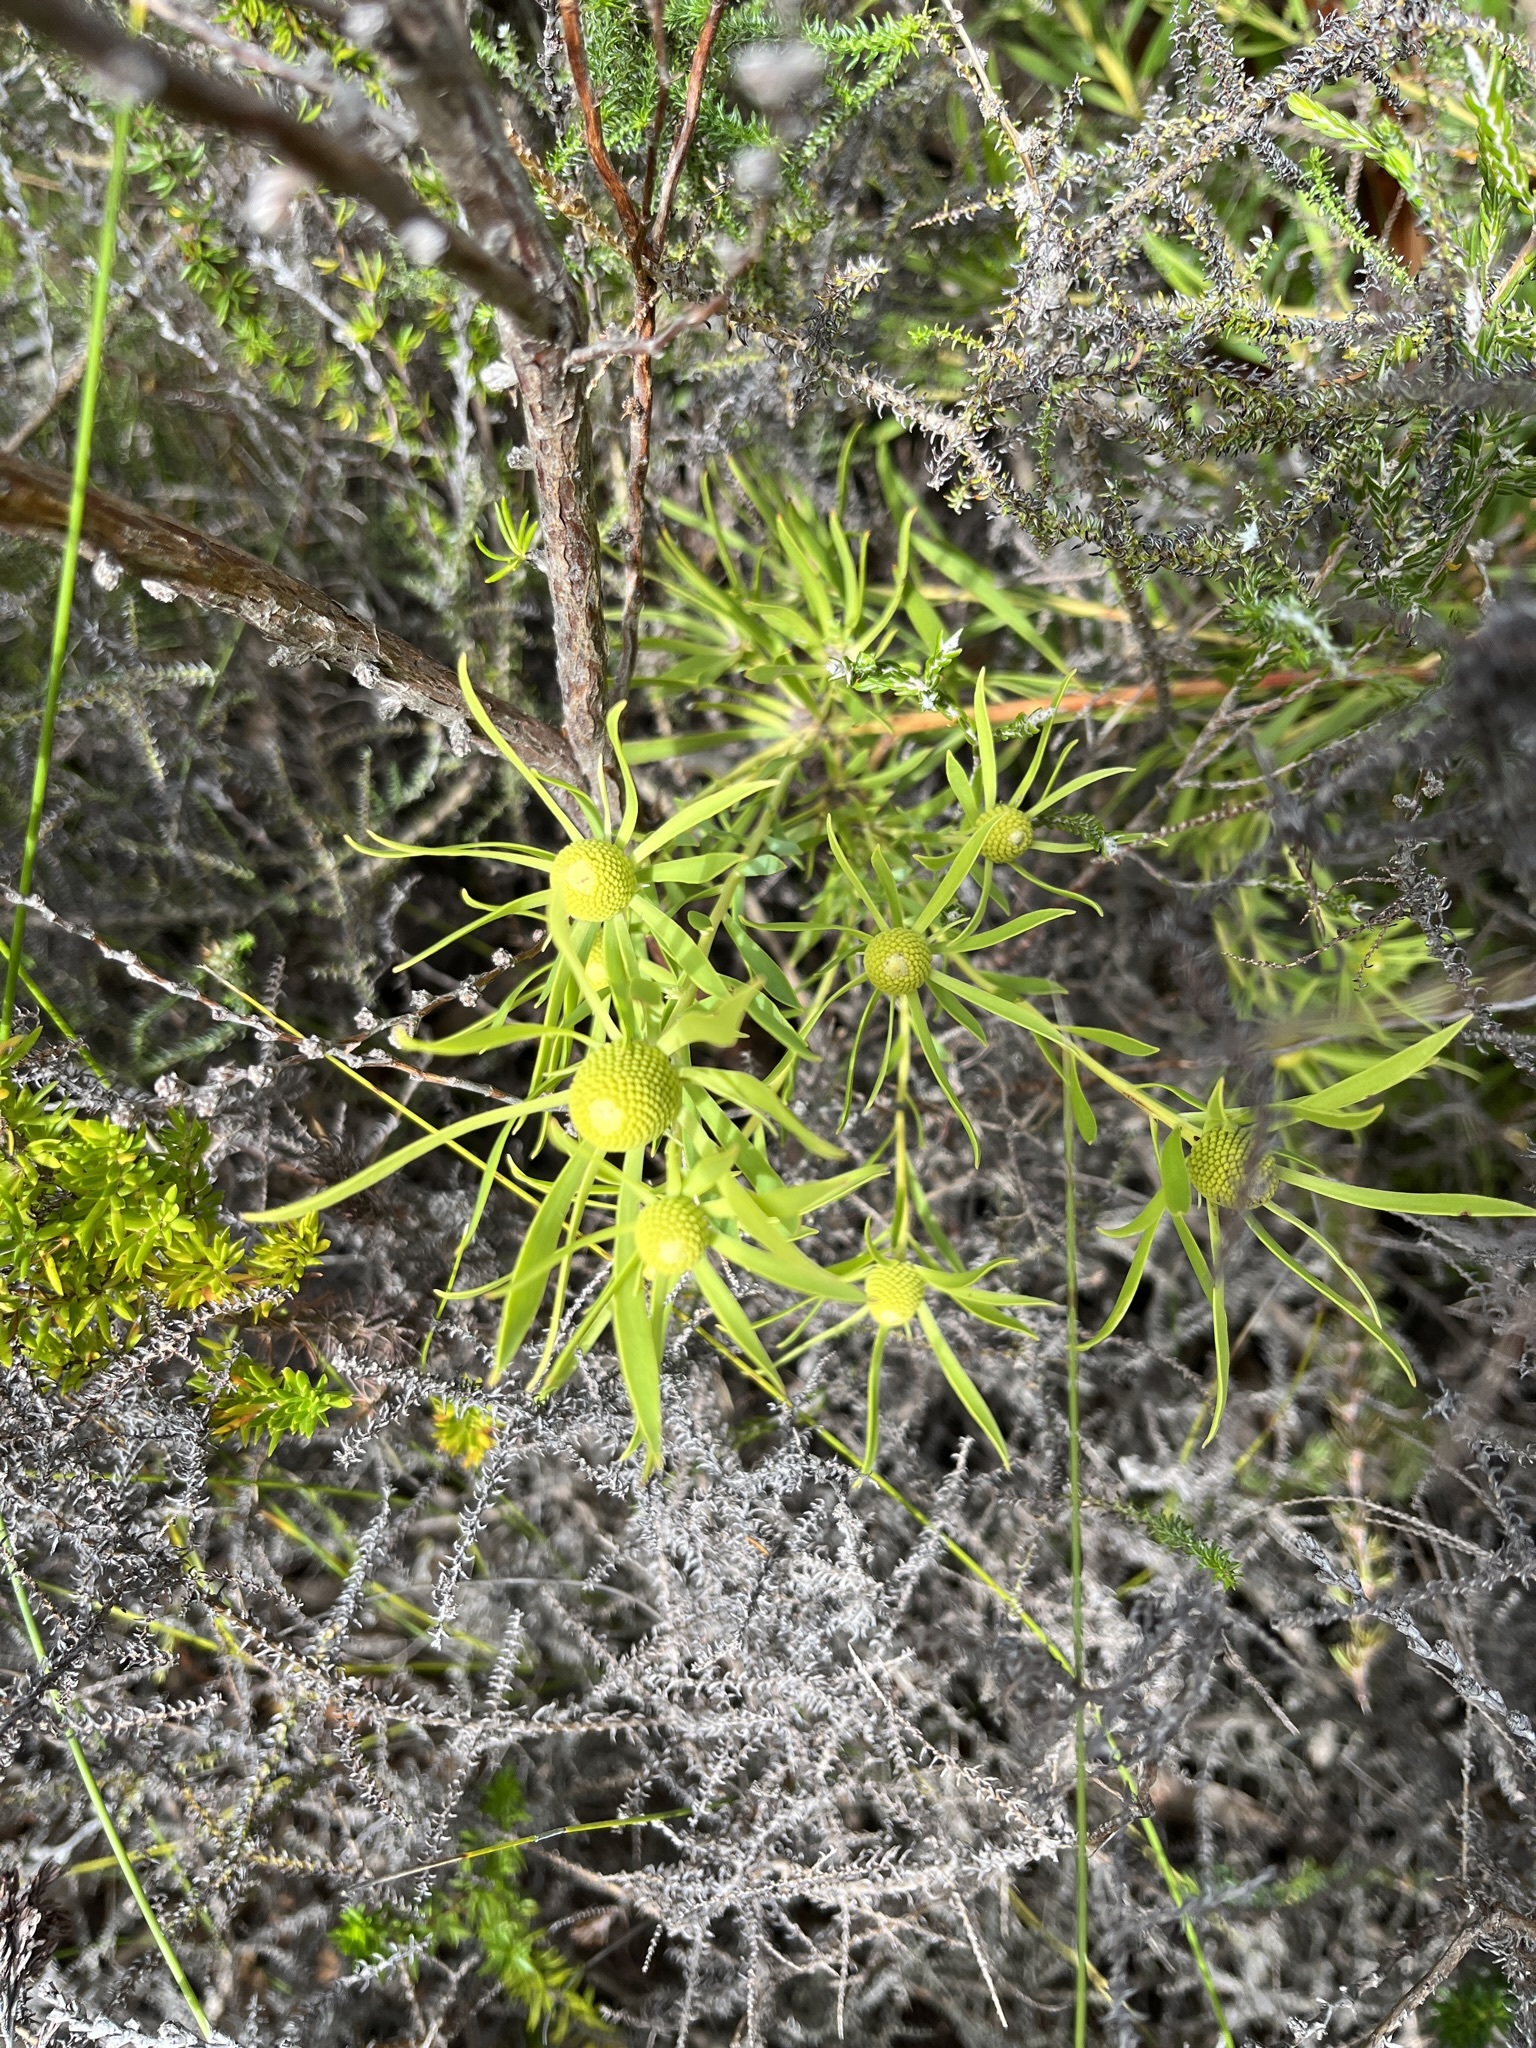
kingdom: Plantae
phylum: Tracheophyta
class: Magnoliopsida
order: Proteales
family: Proteaceae
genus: Leucadendron
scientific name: Leucadendron salignum
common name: Common sunshine conebush
